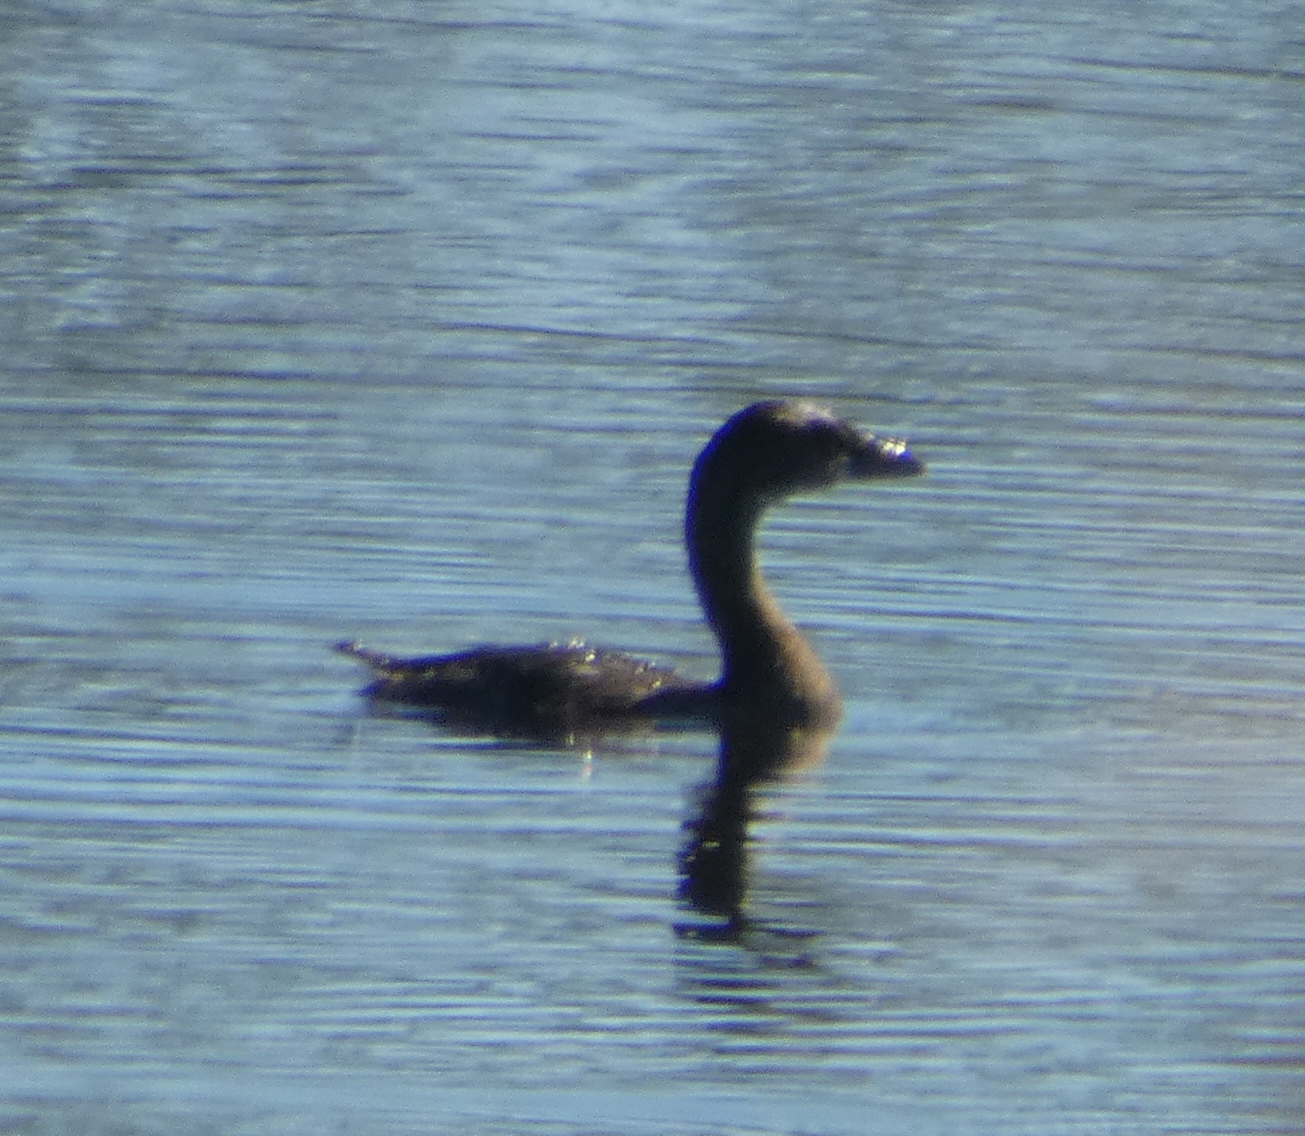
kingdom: Animalia
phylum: Chordata
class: Aves
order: Podicipediformes
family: Podicipedidae
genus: Podilymbus
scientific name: Podilymbus podiceps
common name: Pied-billed grebe
